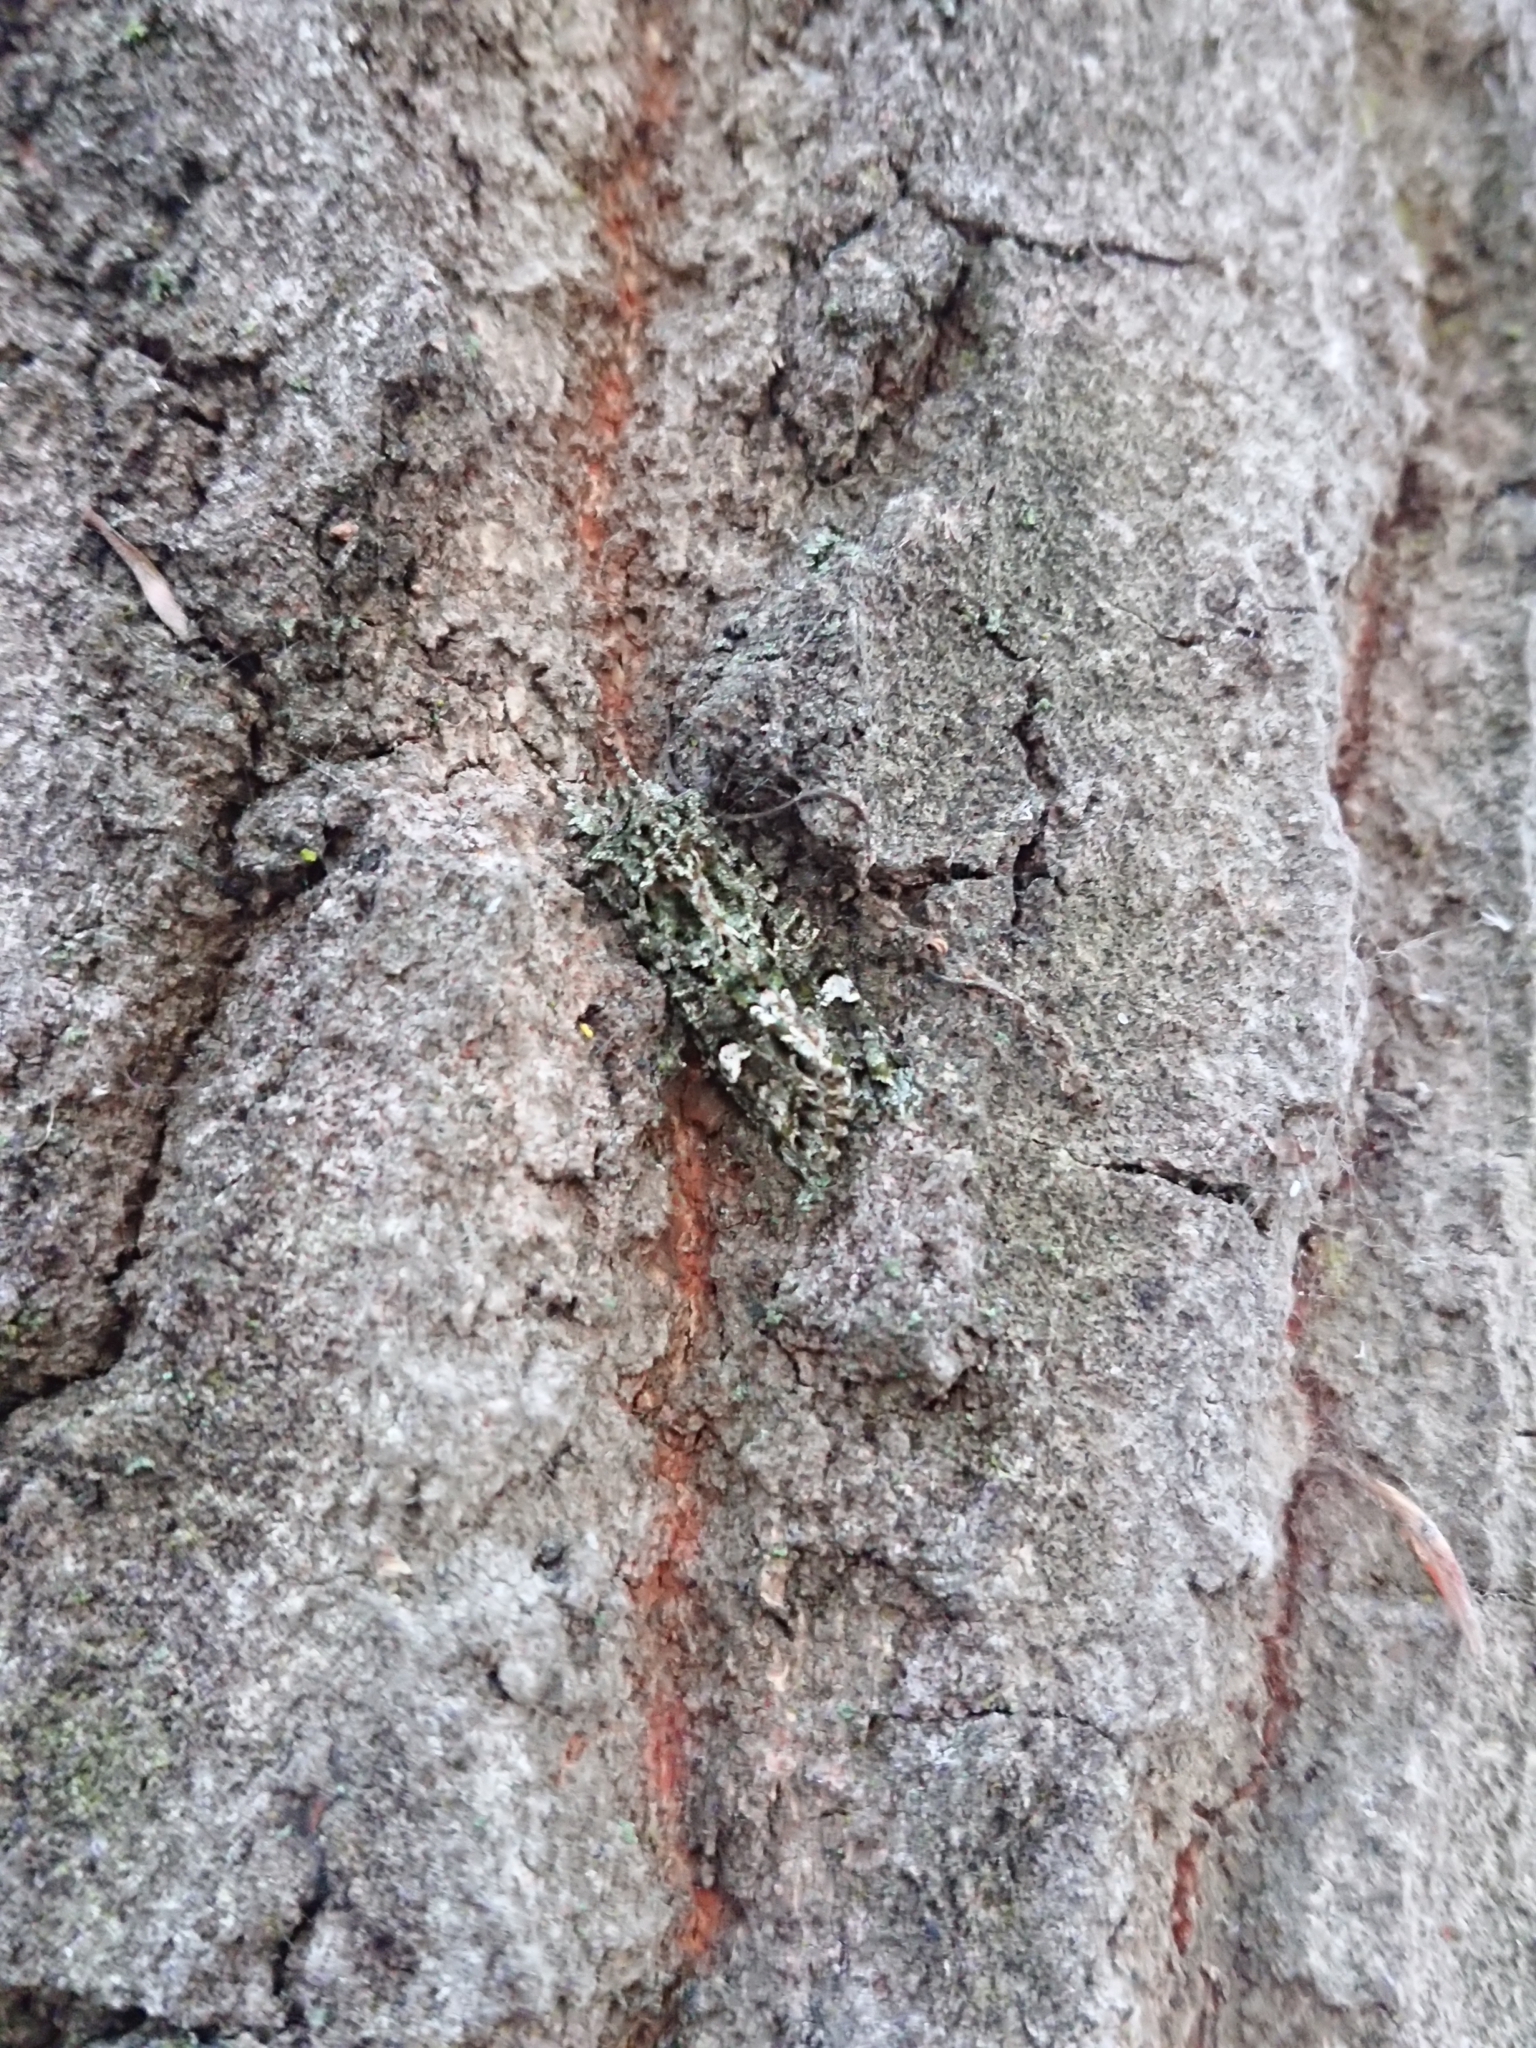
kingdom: Animalia
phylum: Arthropoda
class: Insecta
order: Lepidoptera
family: Noctuidae
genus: Ichneutica
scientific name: Ichneutica
